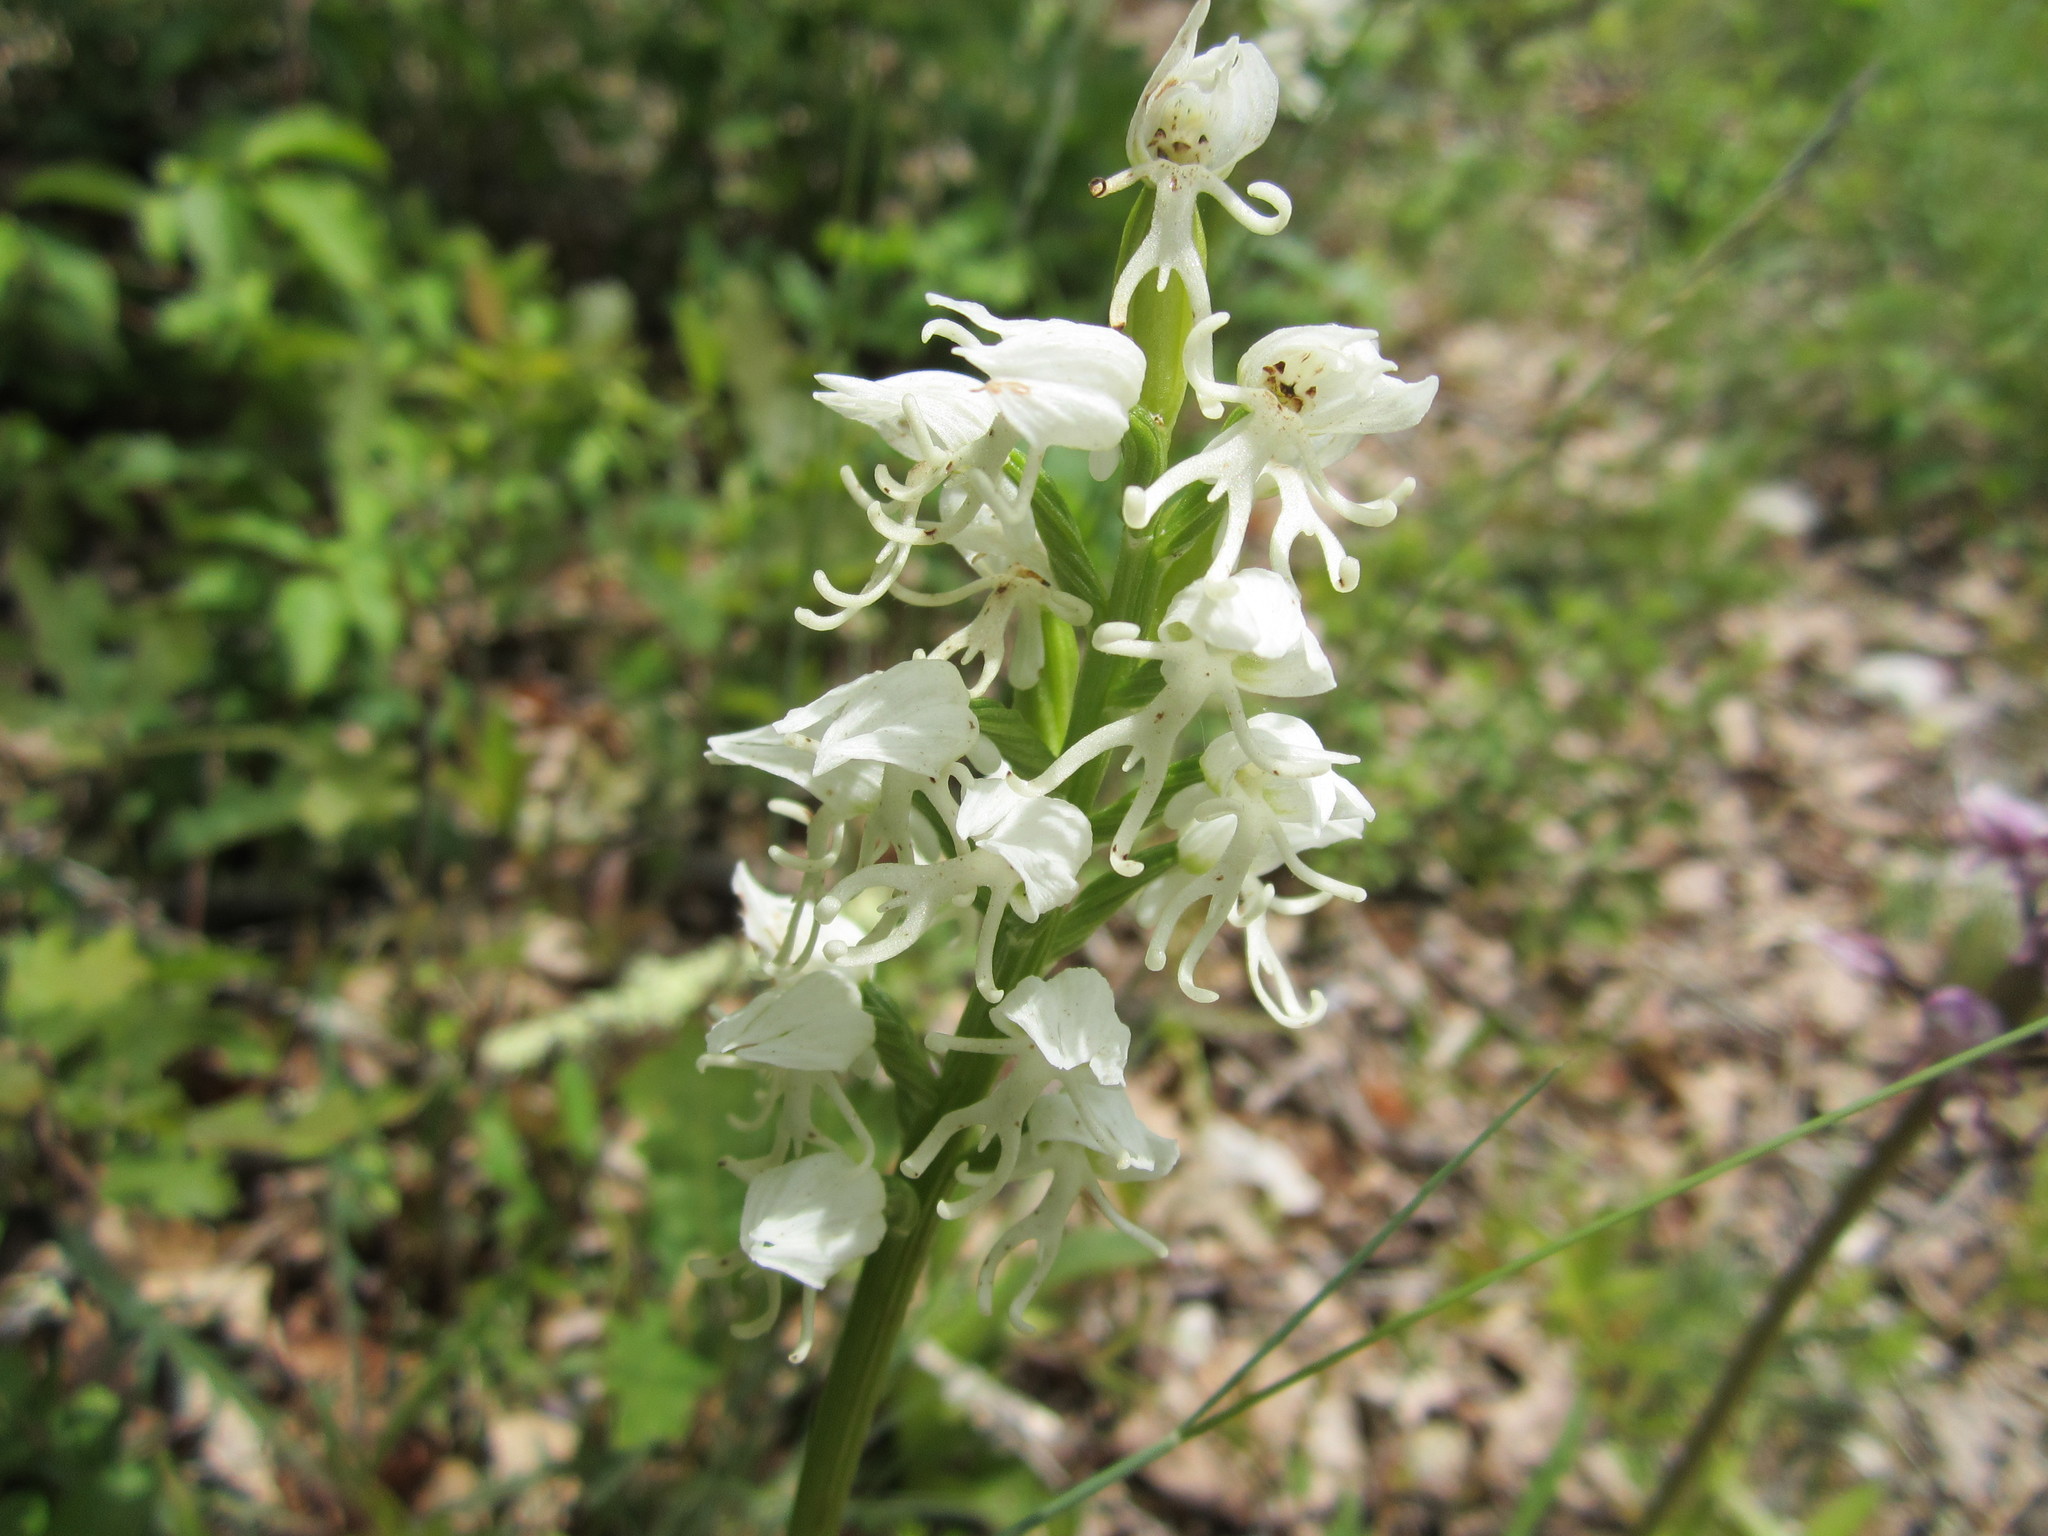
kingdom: Plantae
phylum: Tracheophyta
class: Liliopsida
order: Asparagales
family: Orchidaceae
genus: Orchis
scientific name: Orchis simia
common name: Monkey orchid
